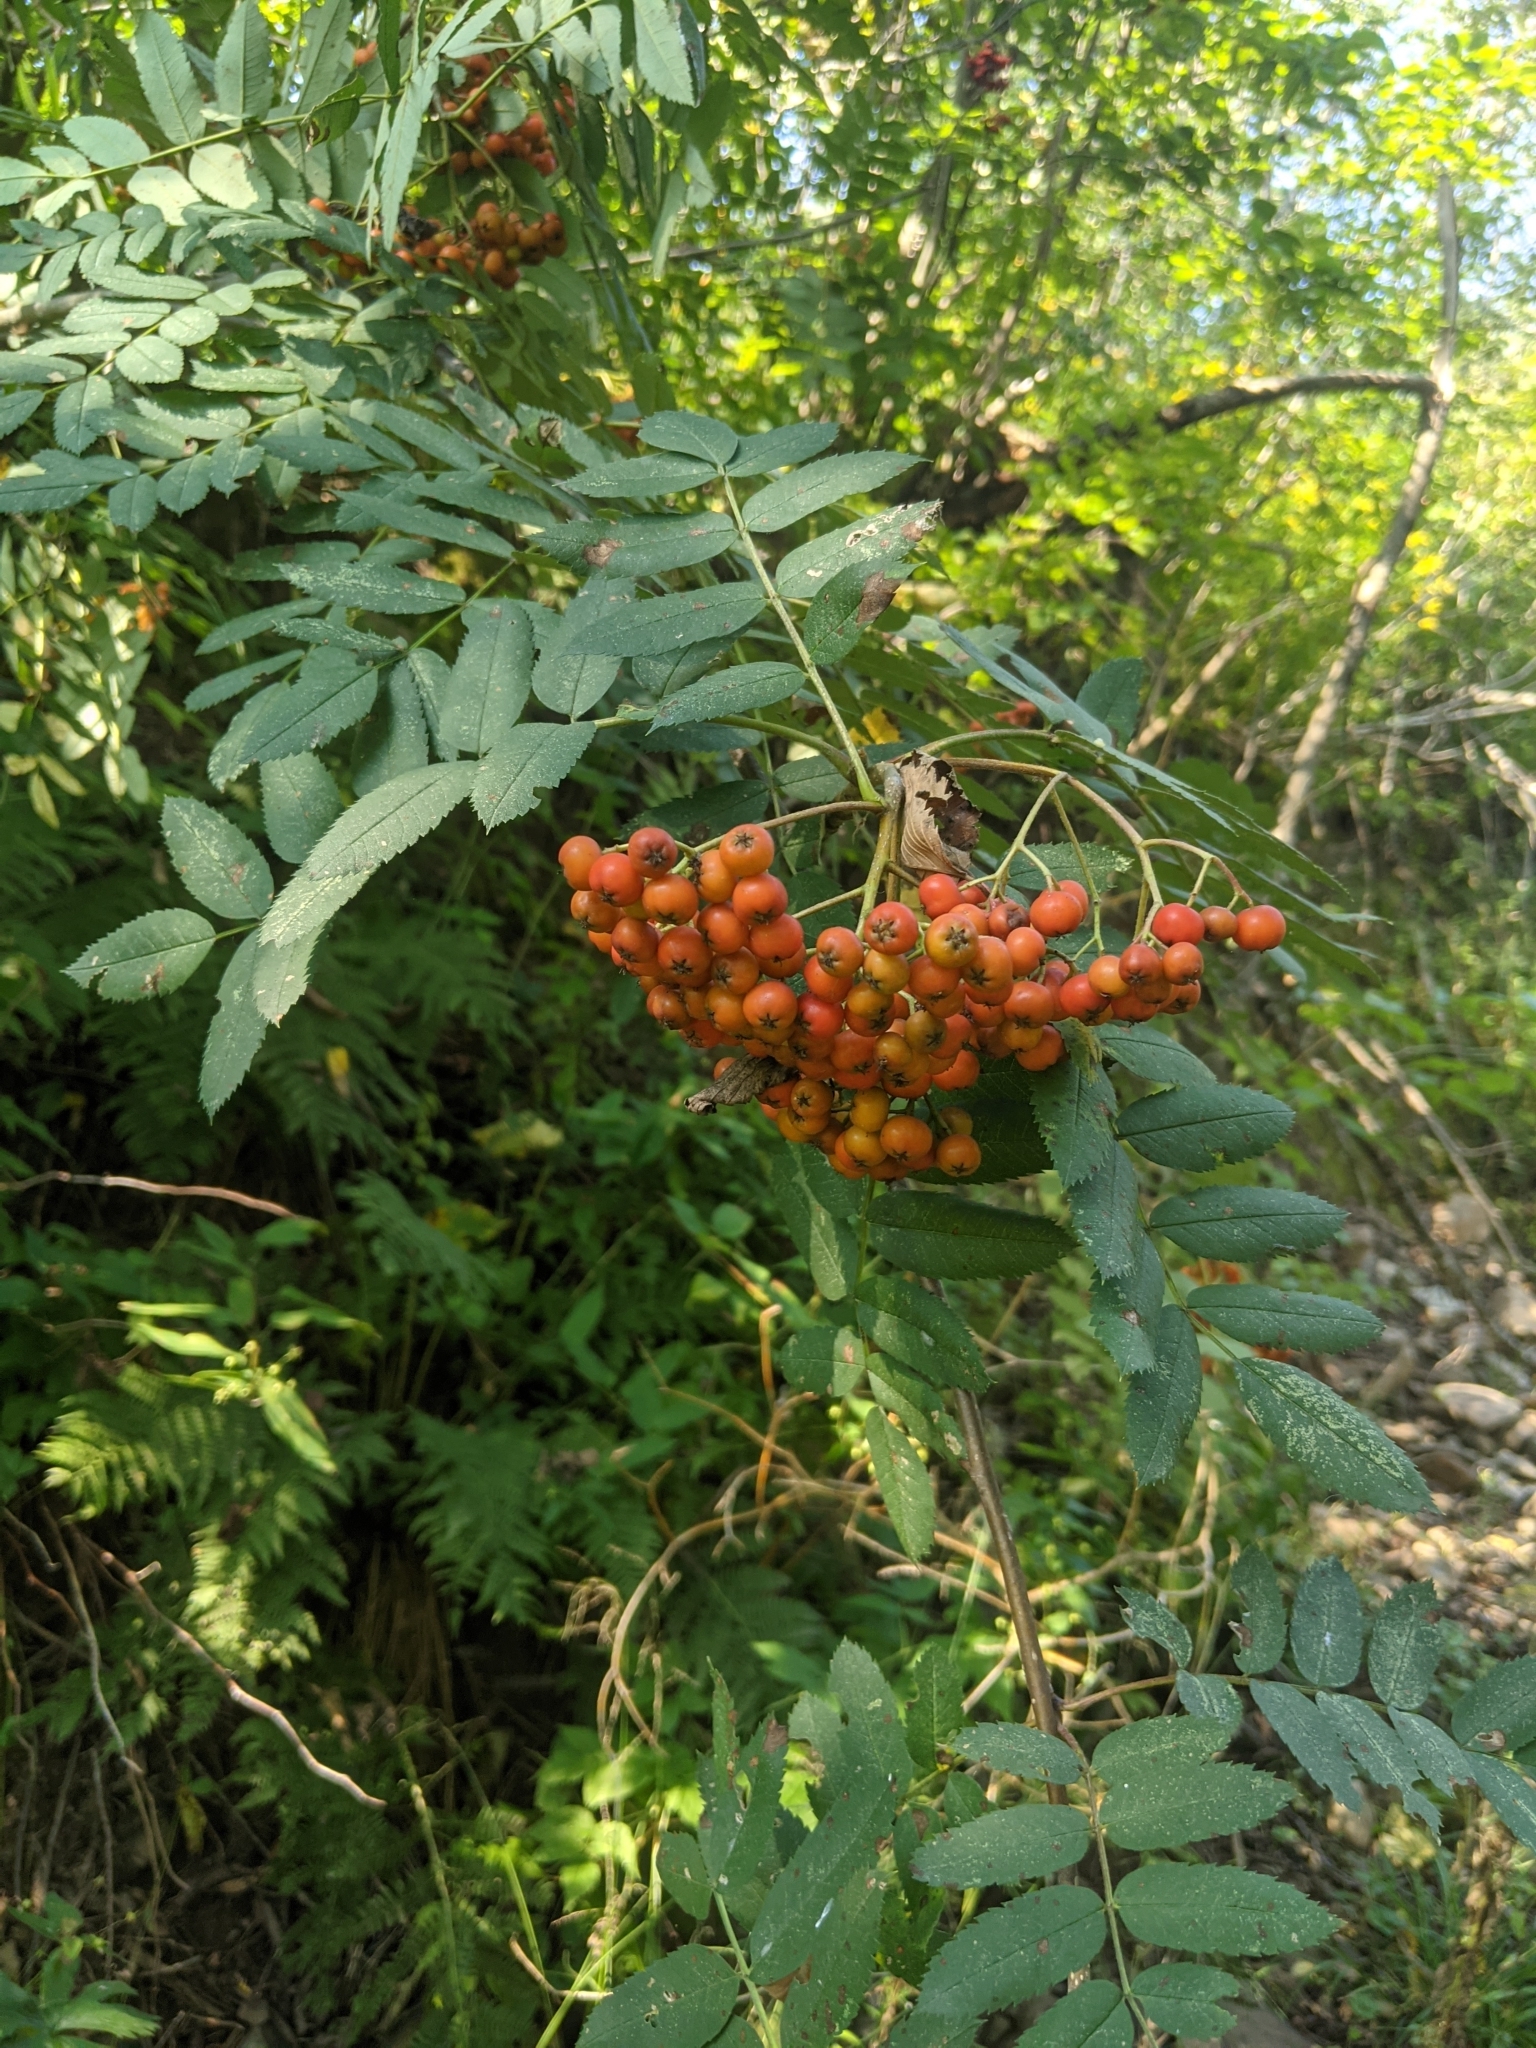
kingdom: Plantae
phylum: Tracheophyta
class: Magnoliopsida
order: Rosales
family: Rosaceae
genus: Sorbus
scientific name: Sorbus aucuparia
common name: Rowan
